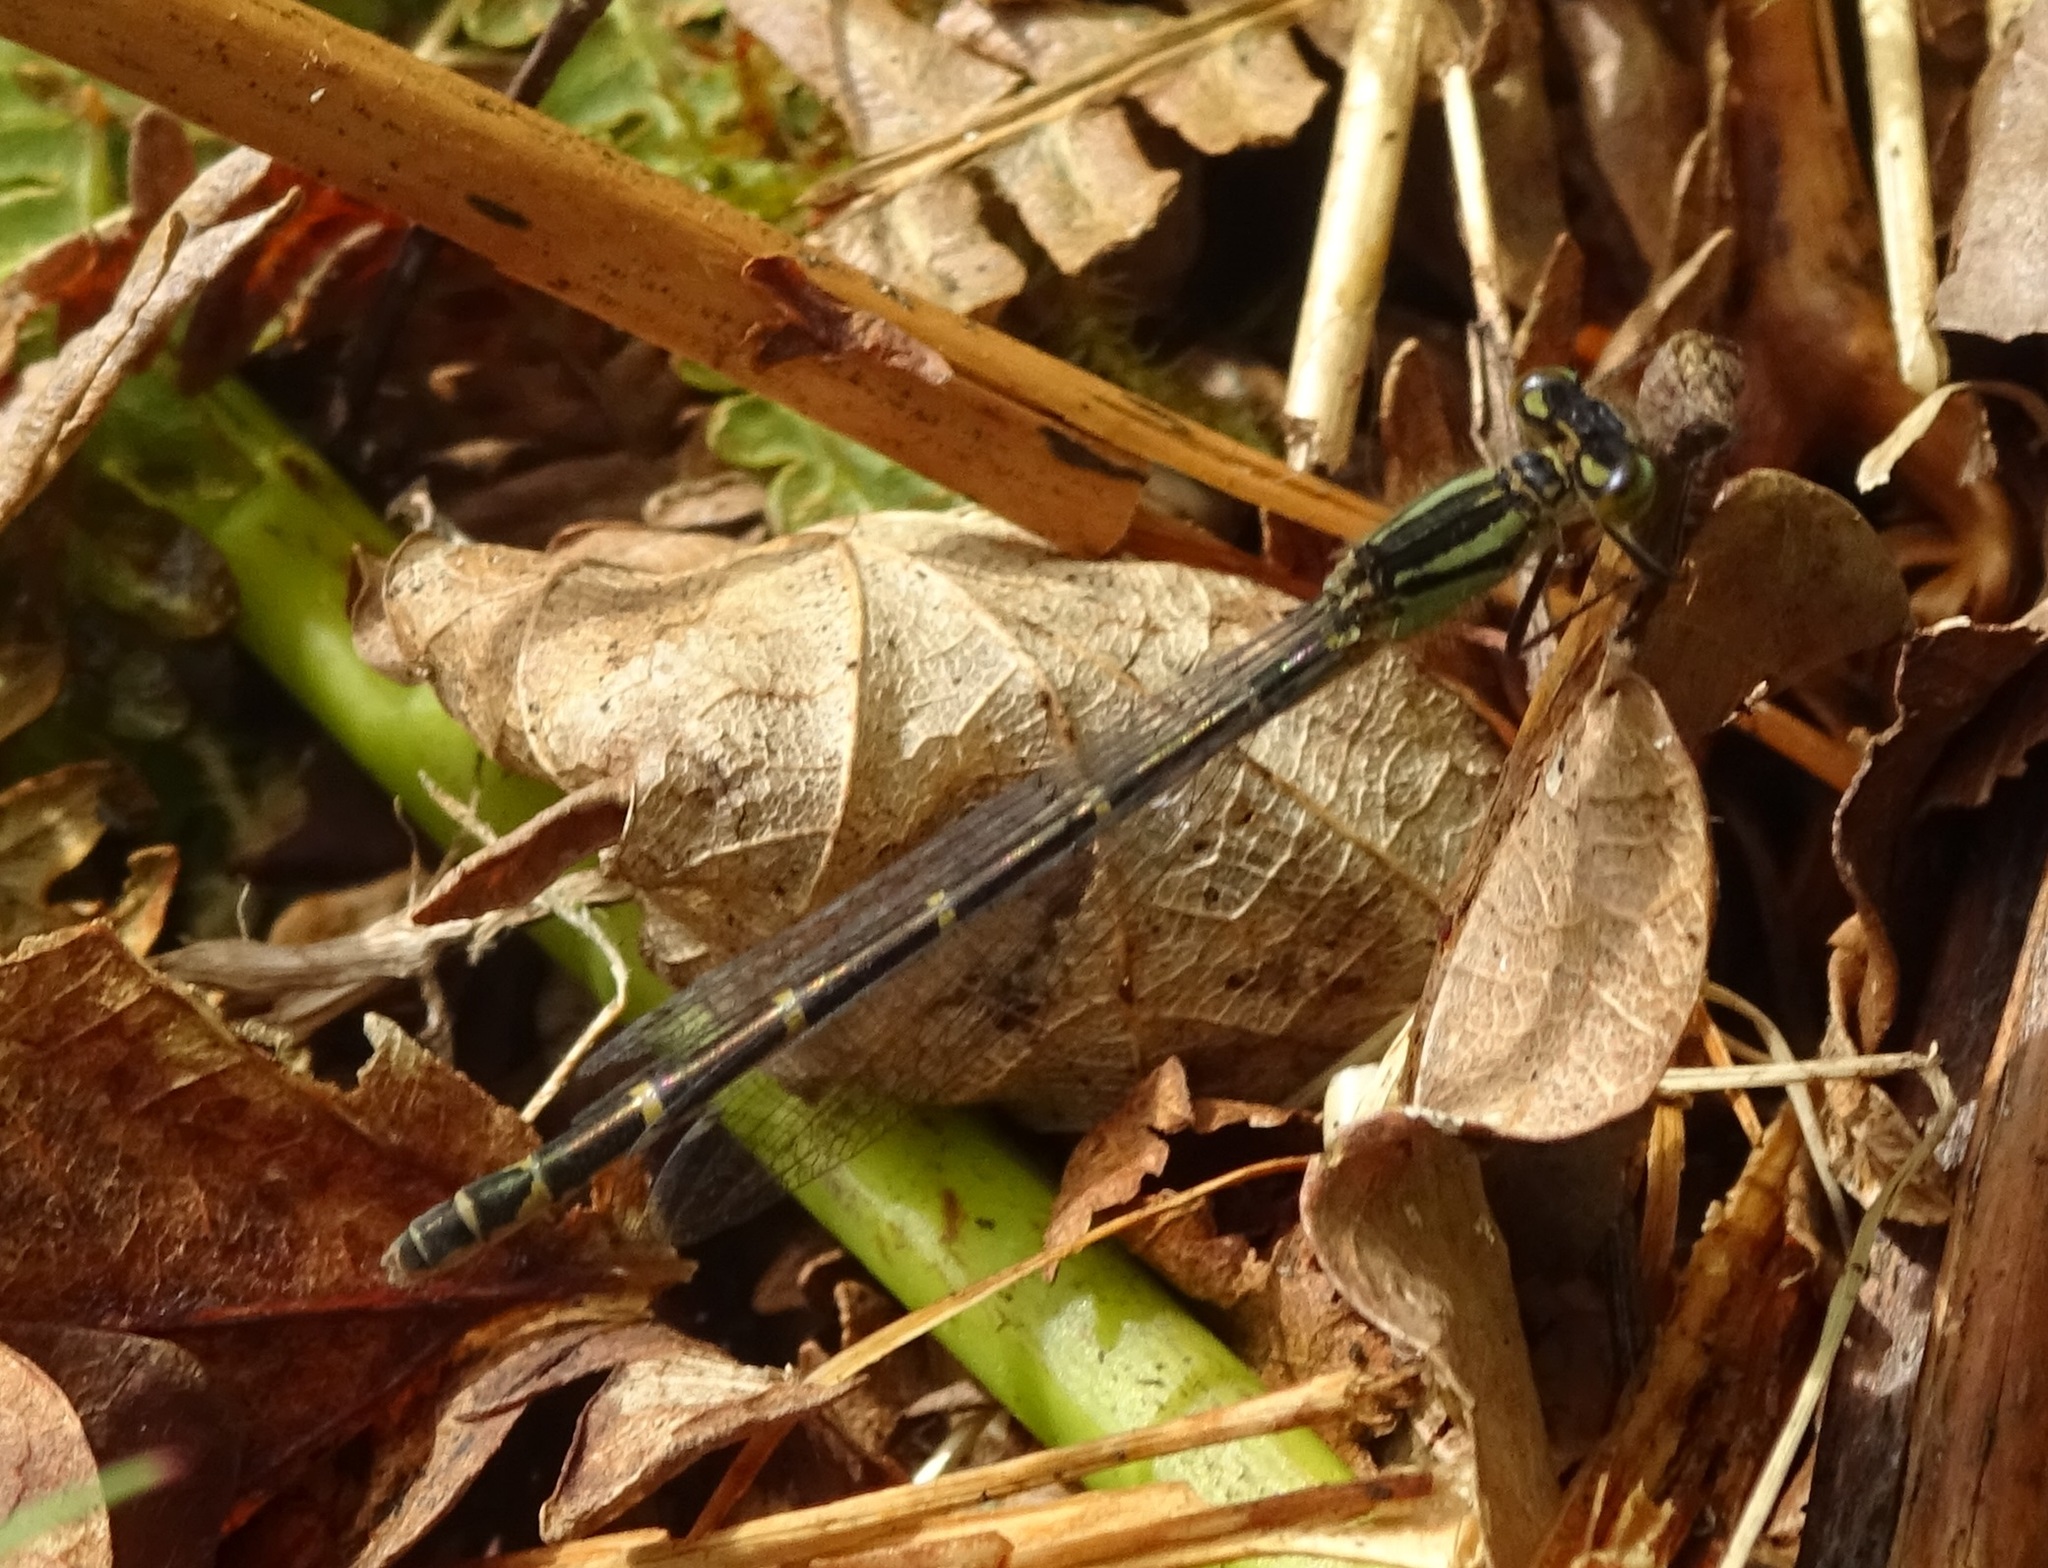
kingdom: Animalia
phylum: Arthropoda
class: Insecta
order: Odonata
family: Coenagrionidae
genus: Enallagma
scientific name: Enallagma cyathigerum
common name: Common blue damselfly
